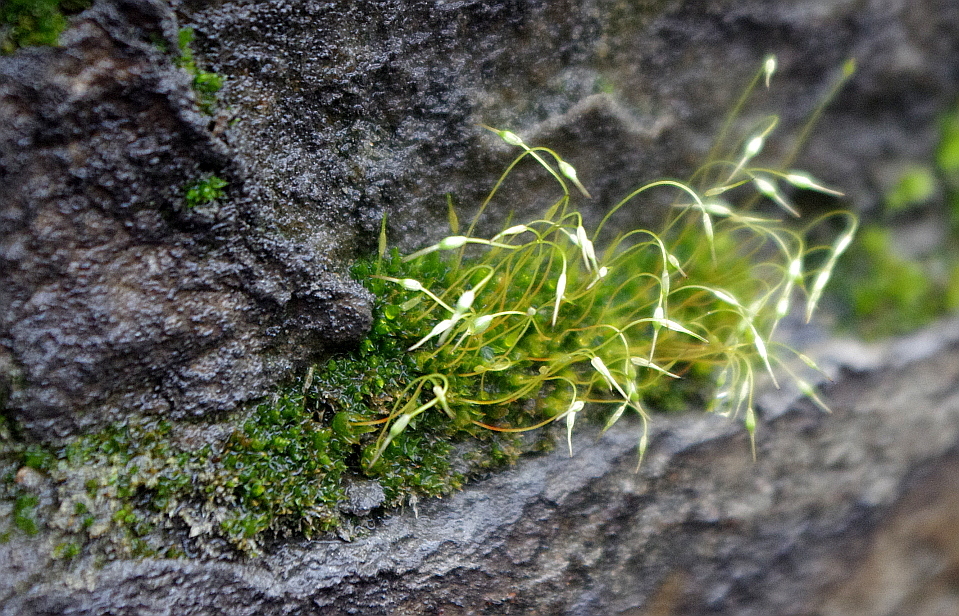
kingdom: Plantae
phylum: Bryophyta
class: Bryopsida
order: Funariales
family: Funariaceae
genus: Funaria
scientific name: Funaria hygrometrica
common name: Common cord moss
